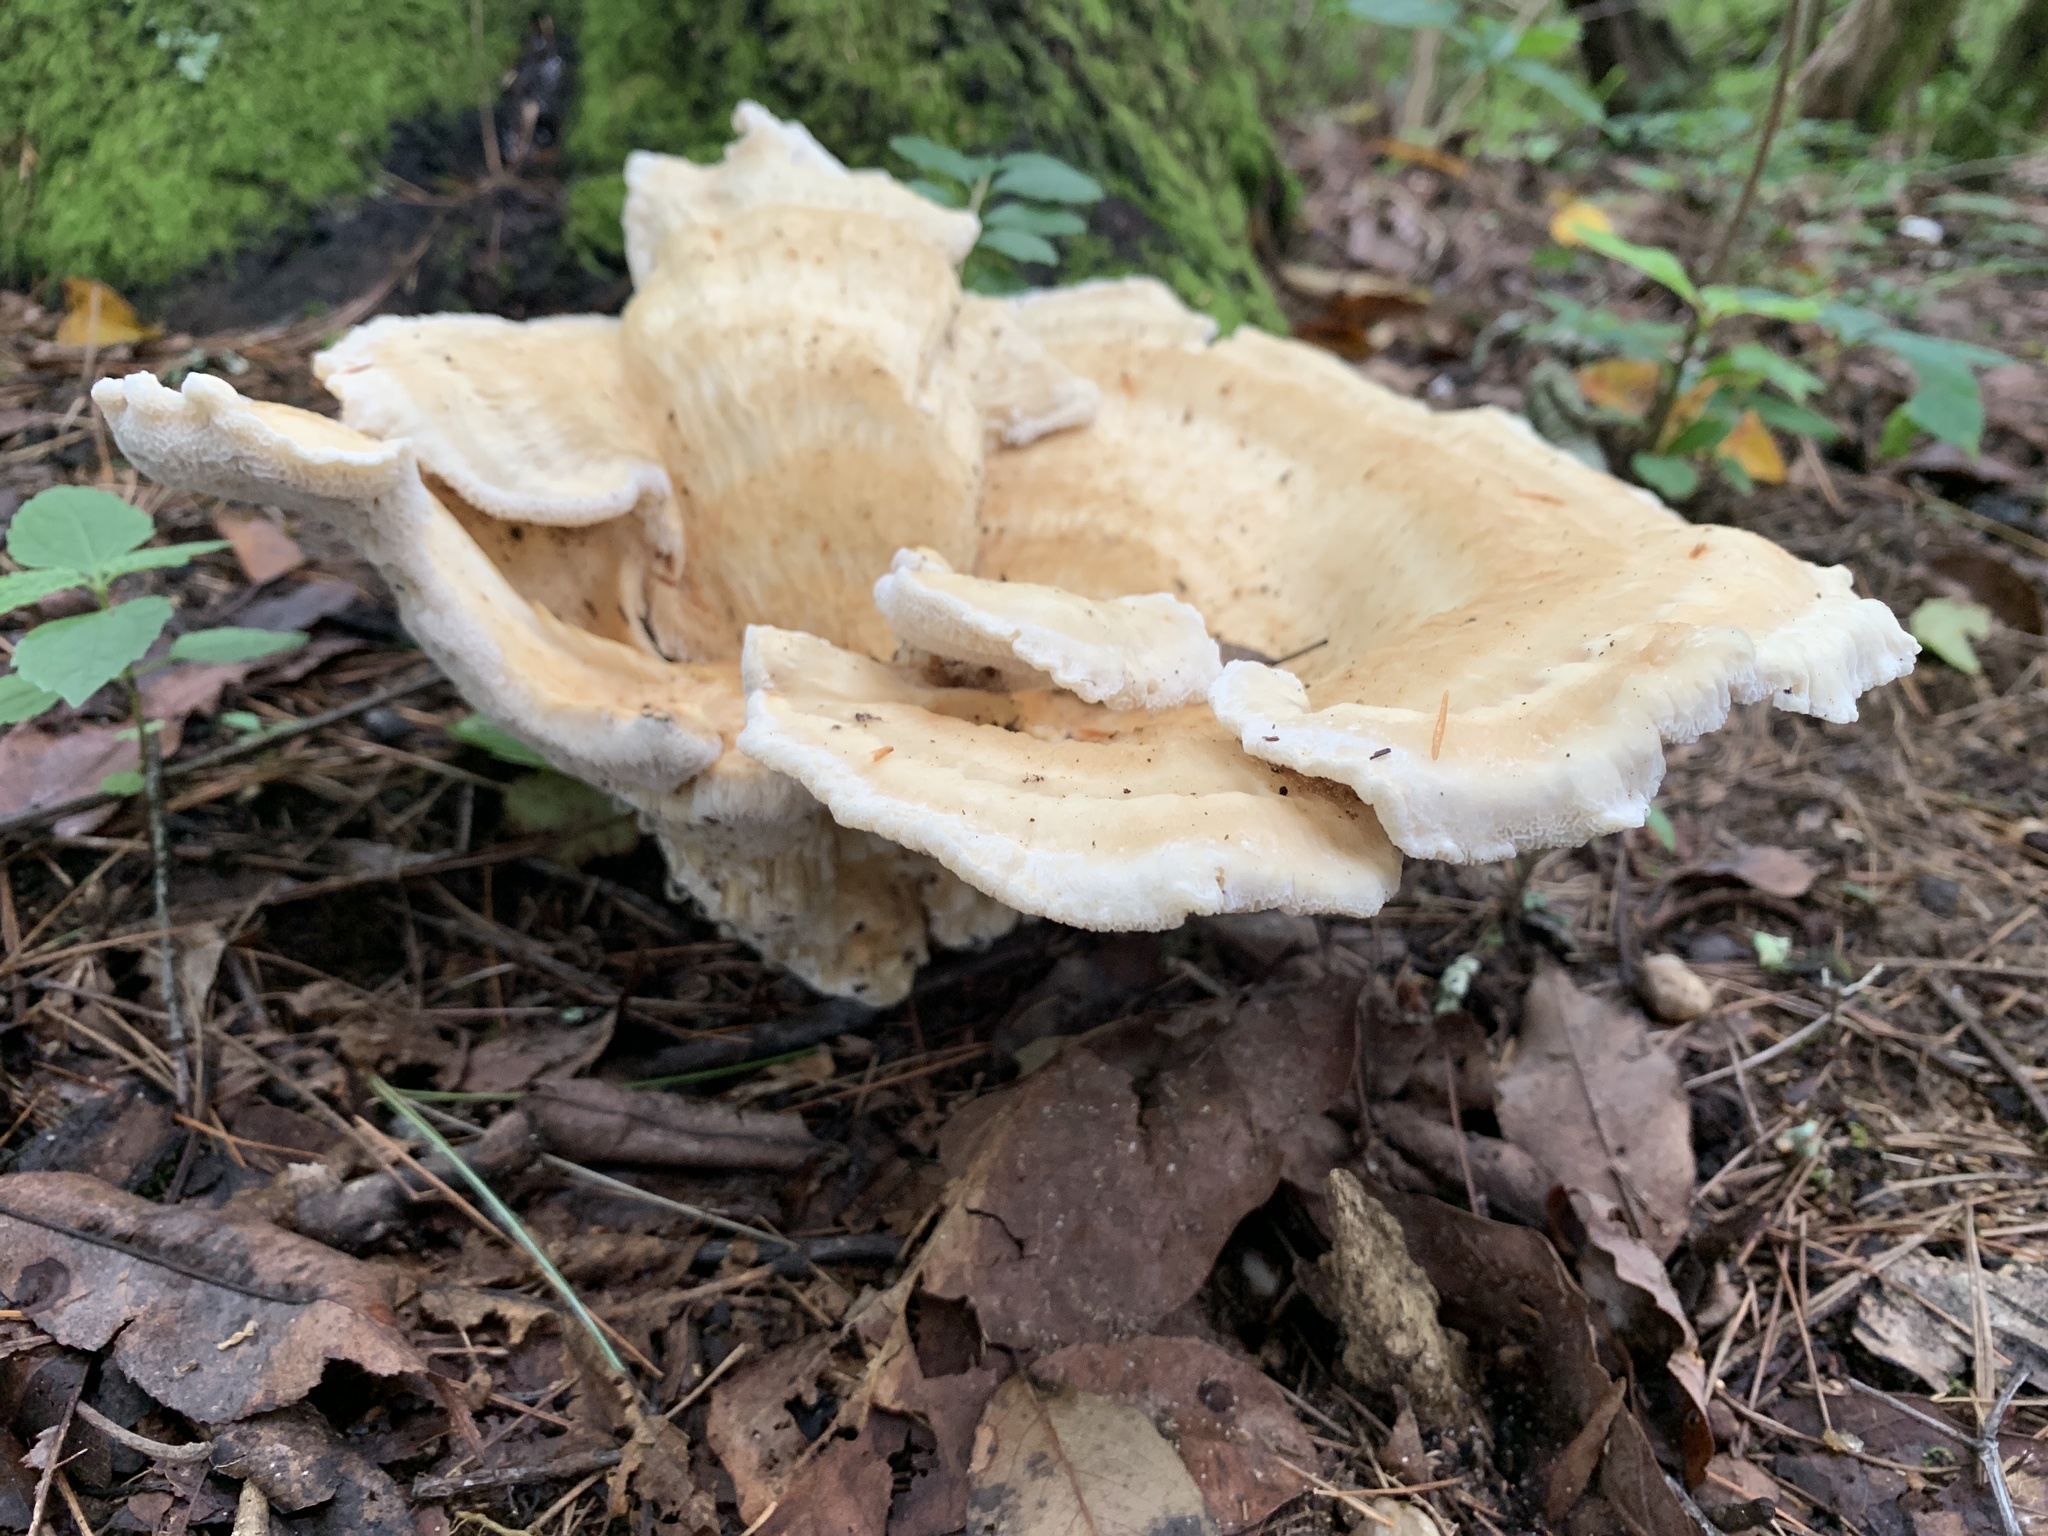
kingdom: Fungi
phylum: Basidiomycota
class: Agaricomycetes
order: Russulales
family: Bondarzewiaceae
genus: Bondarzewia
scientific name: Bondarzewia berkeleyi
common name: Berkeley's polypore
